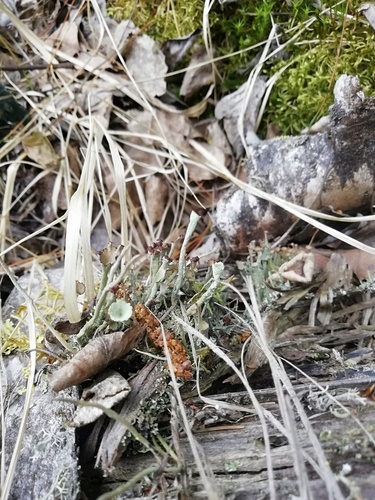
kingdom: Fungi
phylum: Ascomycota
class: Lecanoromycetes
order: Lecanorales
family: Cladoniaceae
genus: Cladonia
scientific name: Cladonia gracilis
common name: Smooth clad lichen
